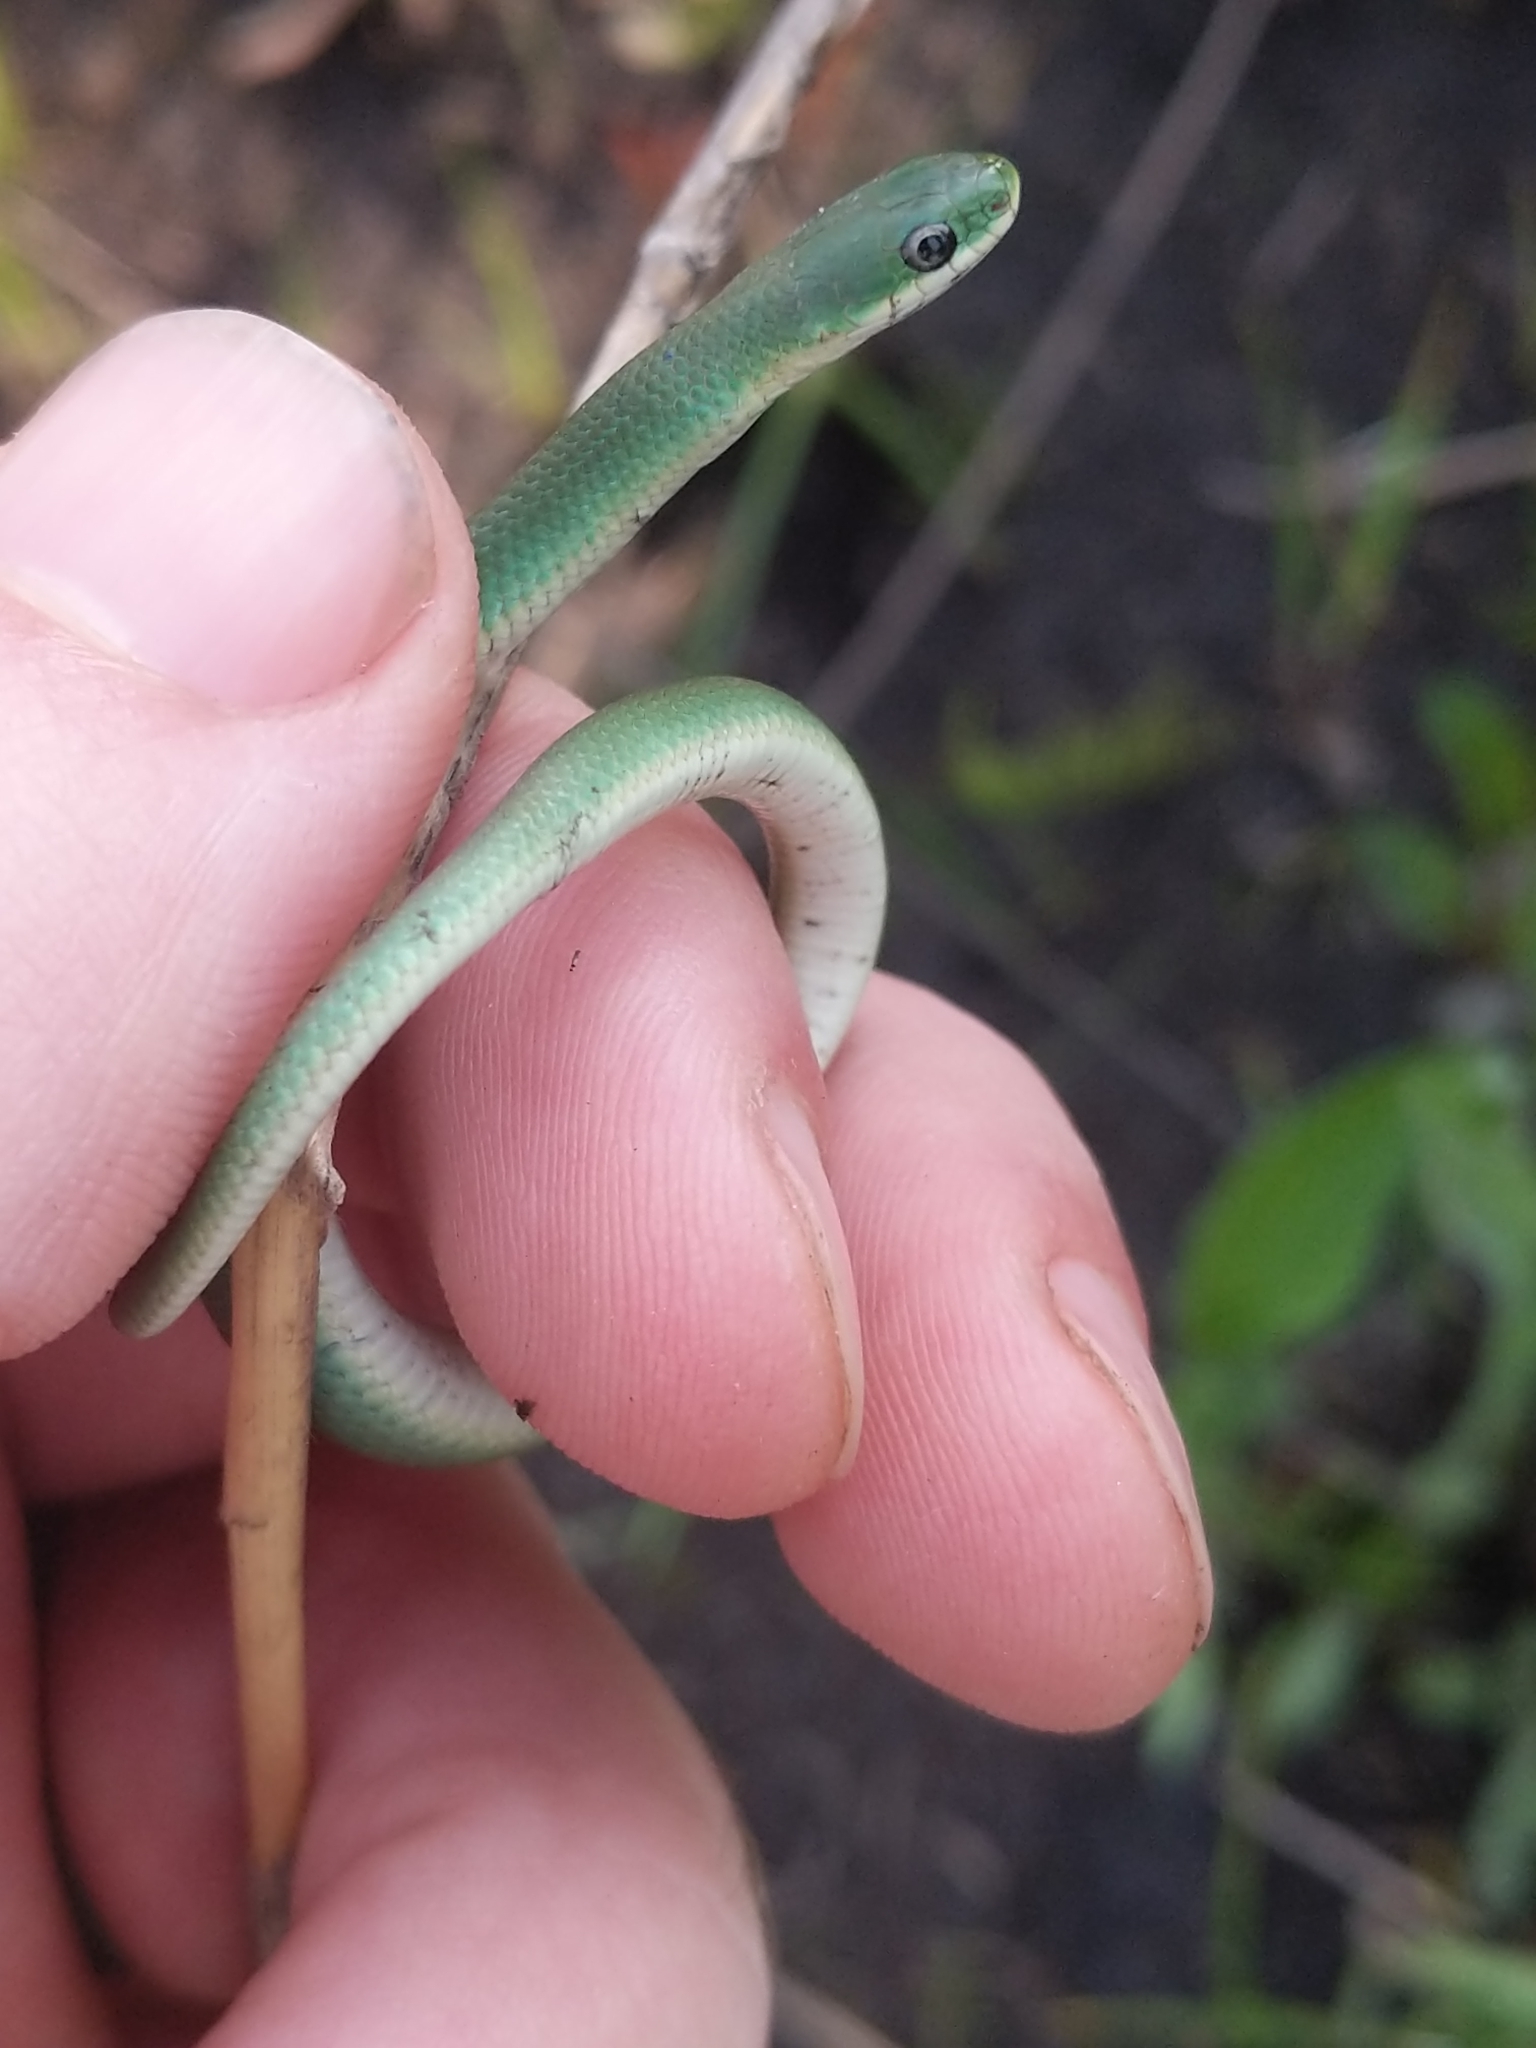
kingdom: Animalia
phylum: Chordata
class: Squamata
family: Colubridae
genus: Opheodrys
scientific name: Opheodrys vernalis
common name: Smooth green snake
